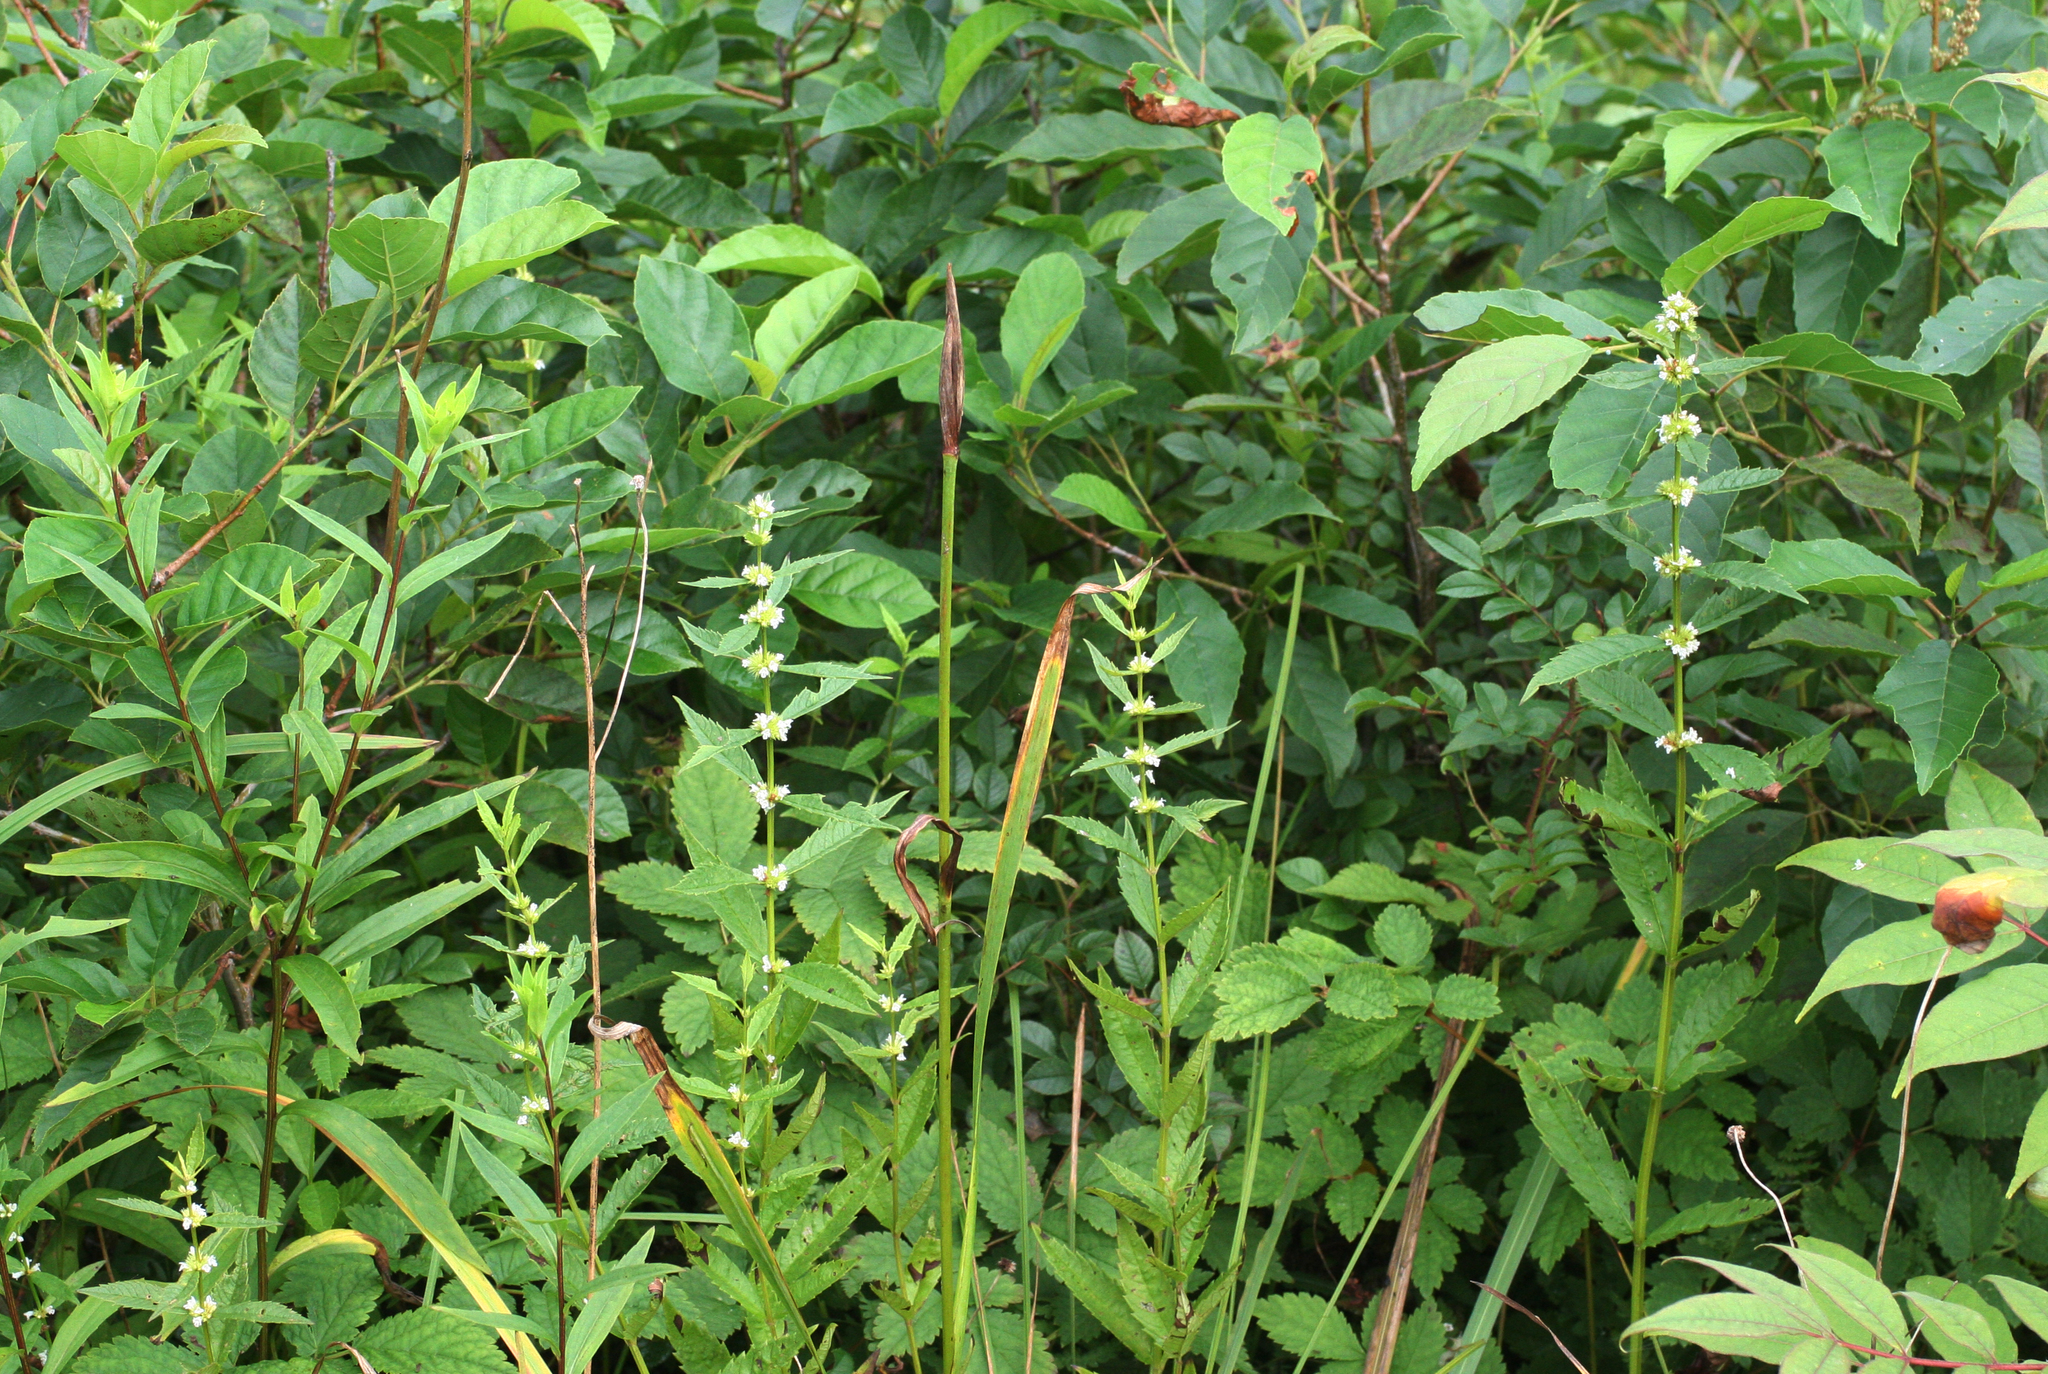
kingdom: Plantae
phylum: Tracheophyta
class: Magnoliopsida
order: Lamiales
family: Lamiaceae
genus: Lycopus
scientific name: Lycopus lucidus
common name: Shiny bugleweed
